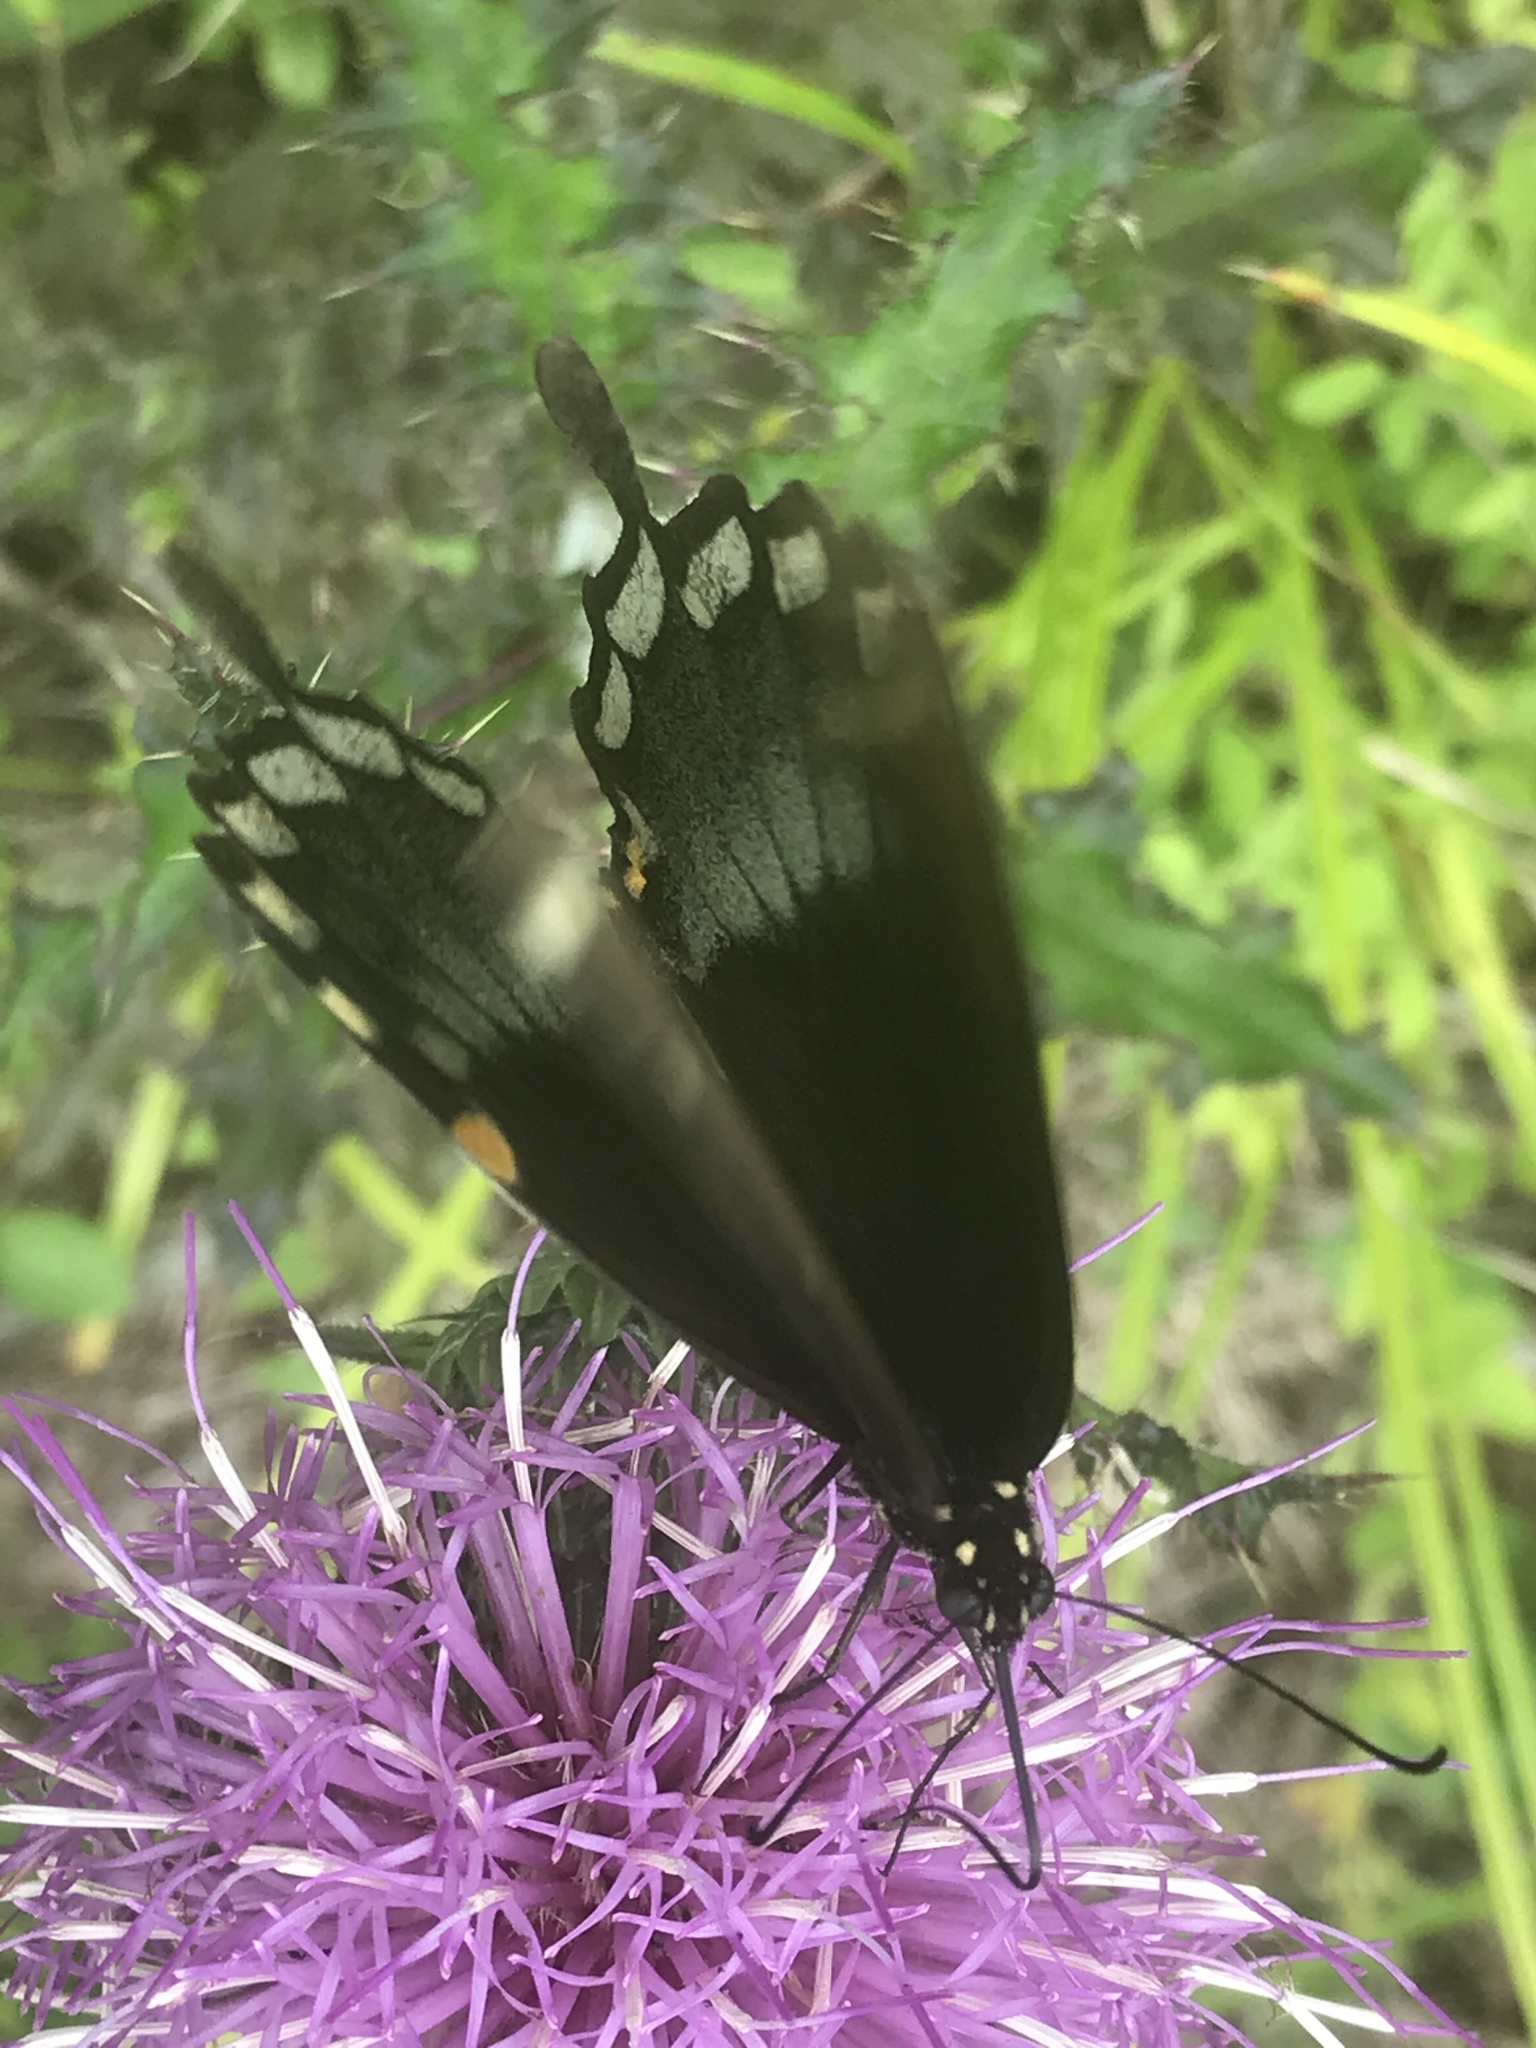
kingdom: Animalia
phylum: Arthropoda
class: Insecta
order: Lepidoptera
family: Papilionidae
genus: Papilio
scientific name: Papilio troilus
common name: Spicebush swallowtail
